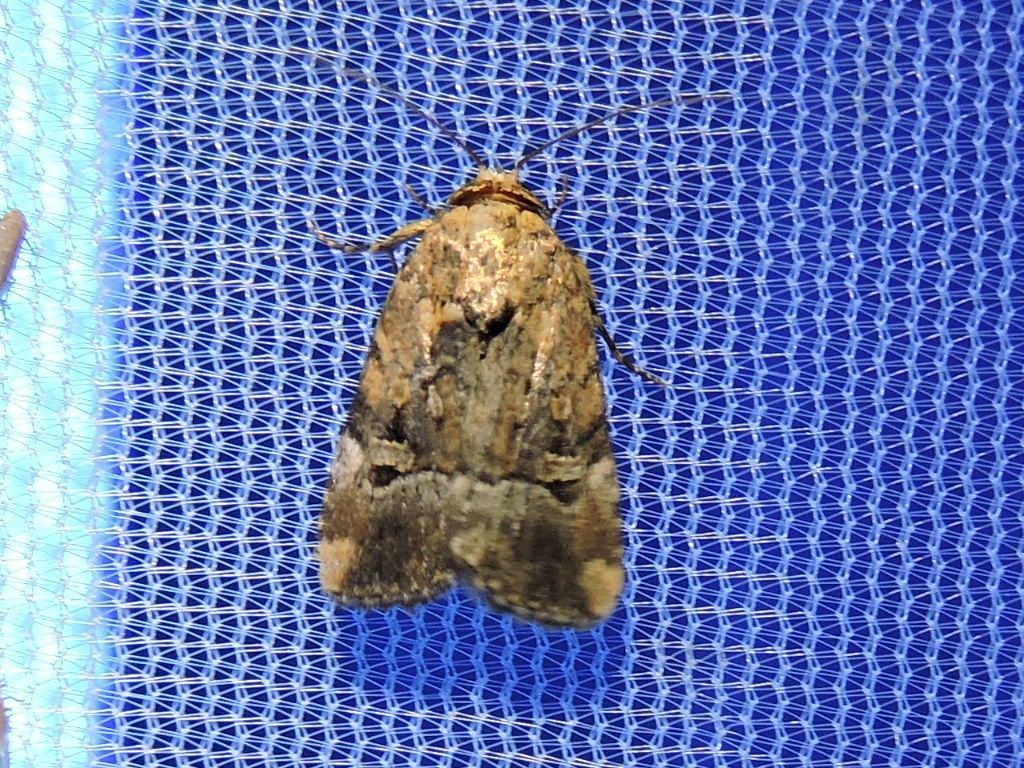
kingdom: Animalia
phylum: Arthropoda
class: Insecta
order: Lepidoptera
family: Noctuidae
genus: Elaphria
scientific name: Elaphria chalcedonia
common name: Chalcedony midget
